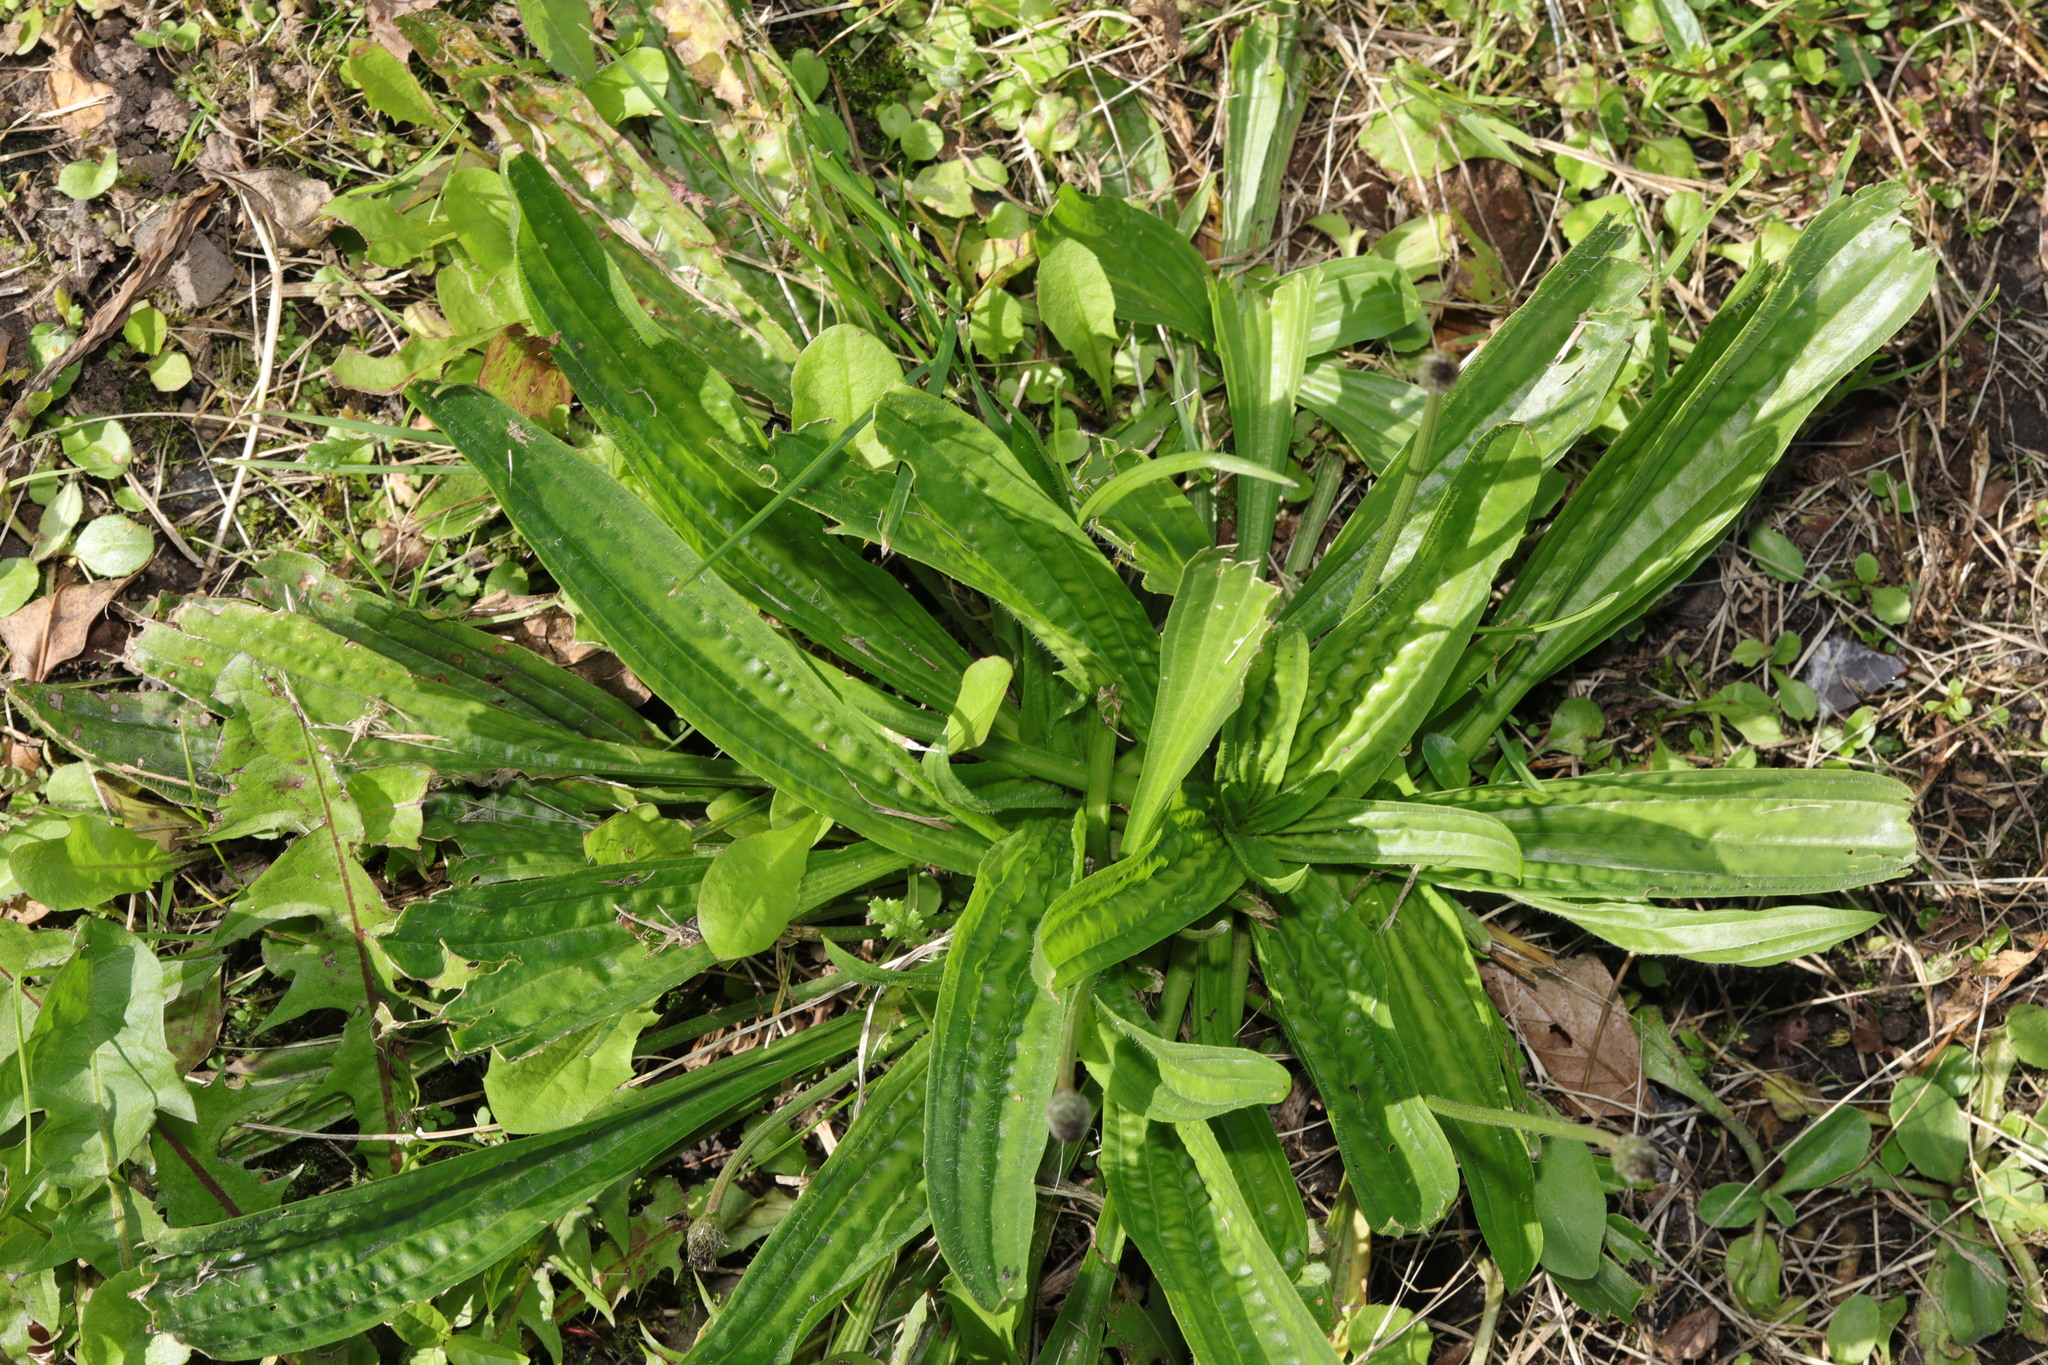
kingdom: Plantae
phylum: Tracheophyta
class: Magnoliopsida
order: Lamiales
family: Plantaginaceae
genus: Plantago
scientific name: Plantago lanceolata
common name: Ribwort plantain
